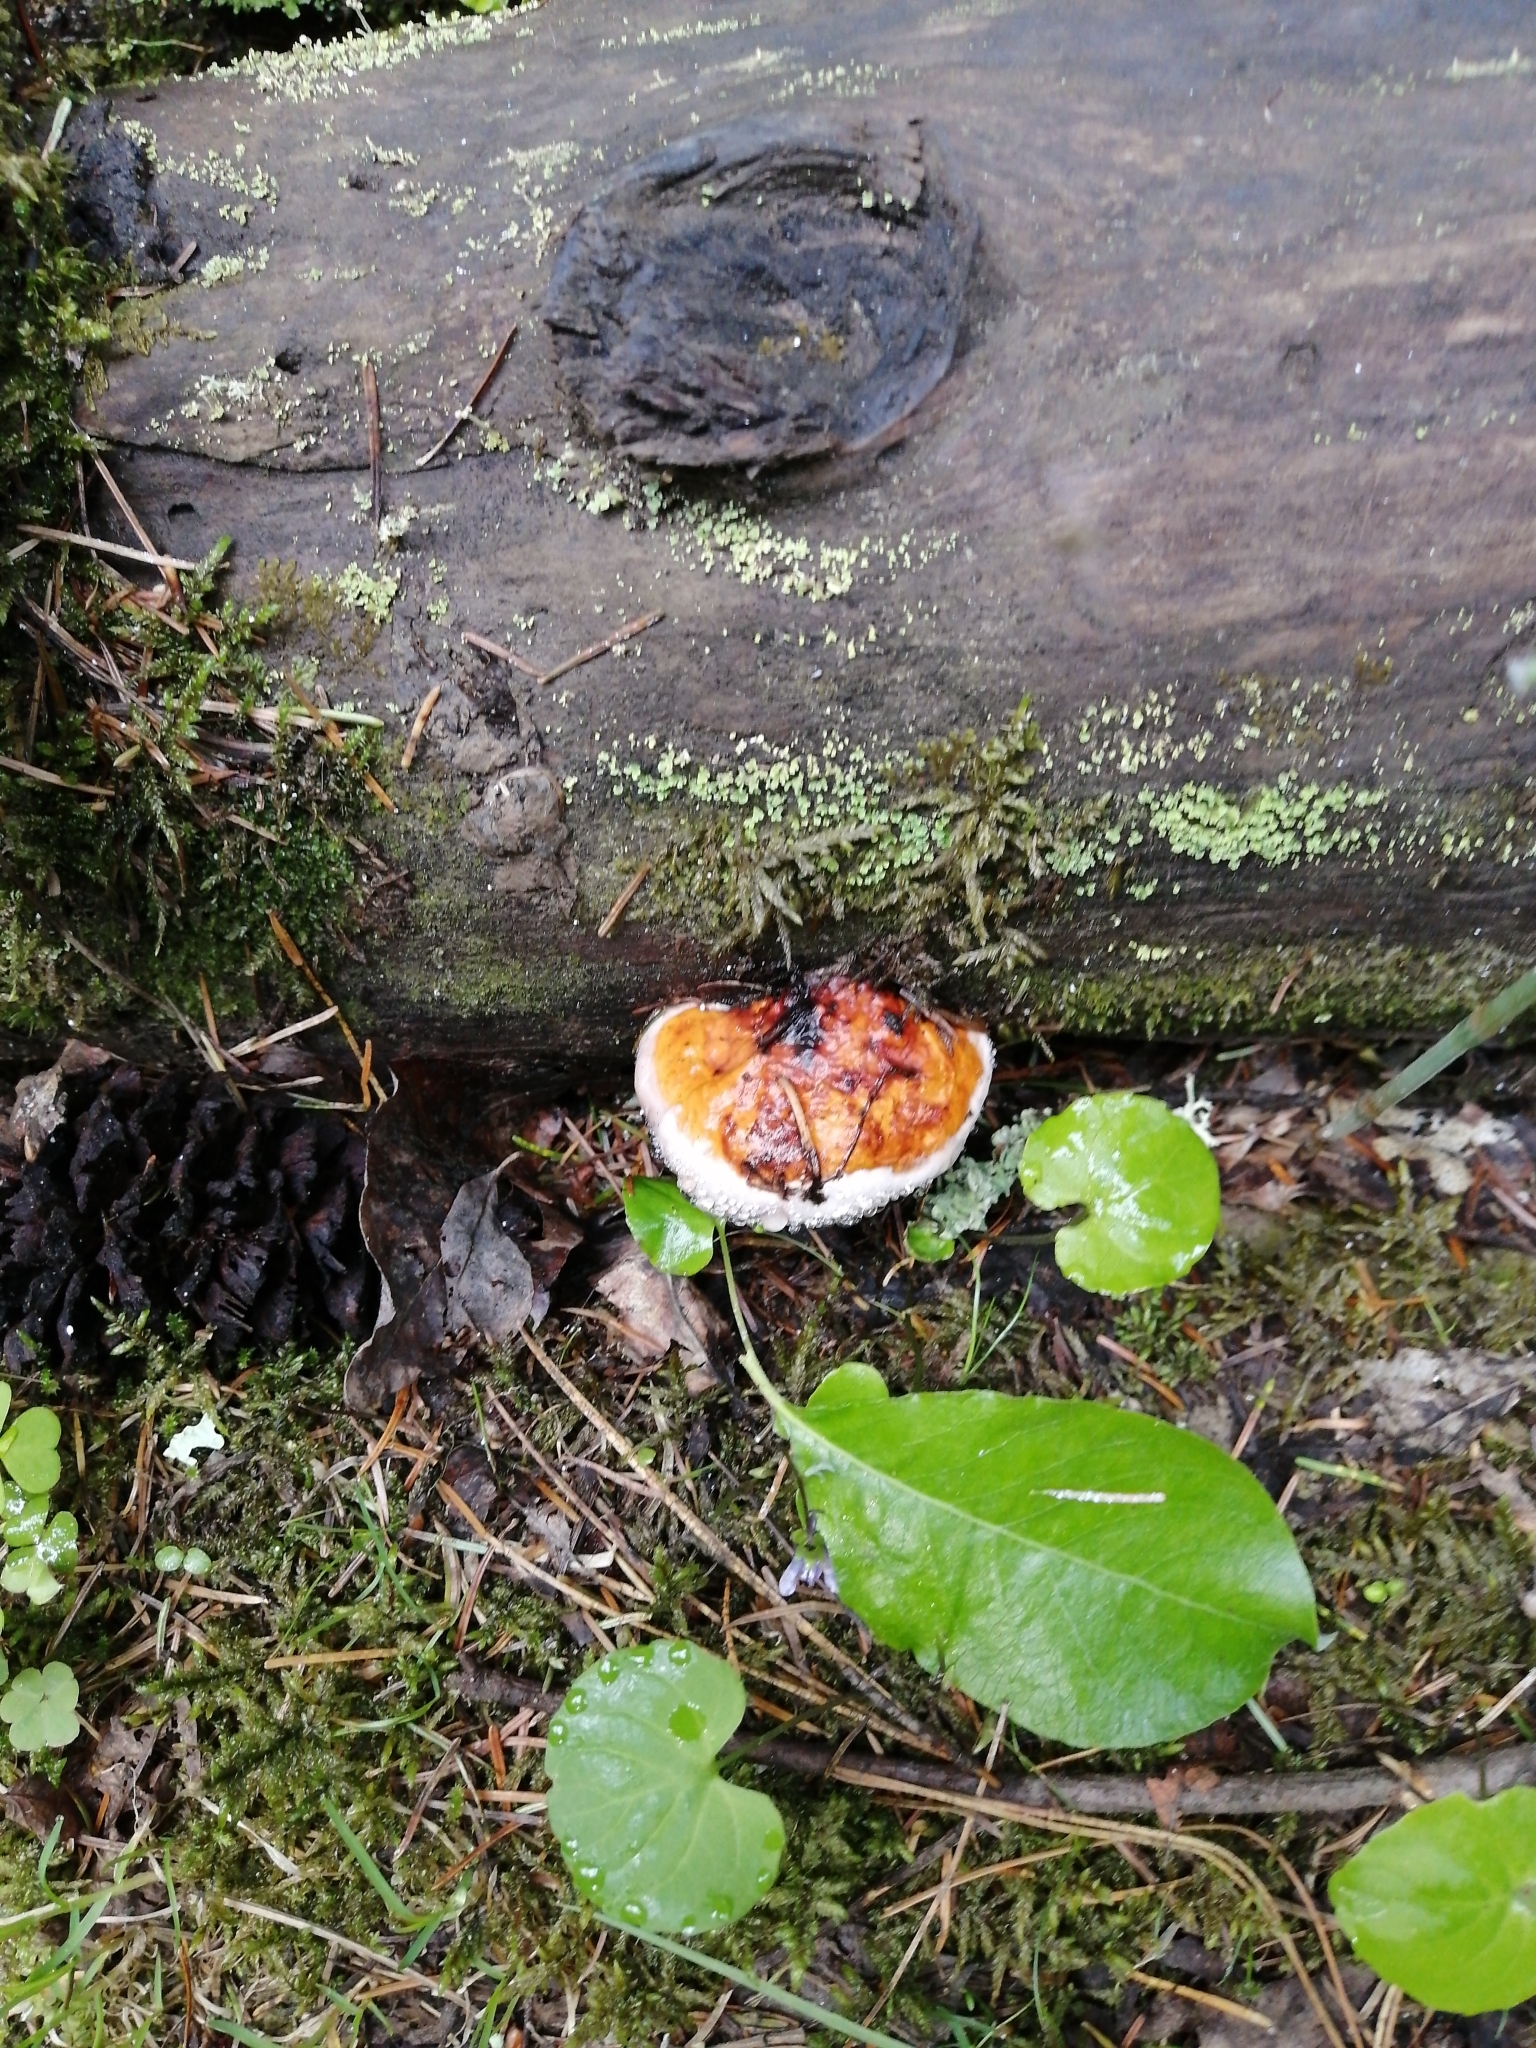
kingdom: Fungi
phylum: Basidiomycota
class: Agaricomycetes
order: Polyporales
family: Fomitopsidaceae
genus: Fomitopsis
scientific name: Fomitopsis pinicola
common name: Red-belted bracket
